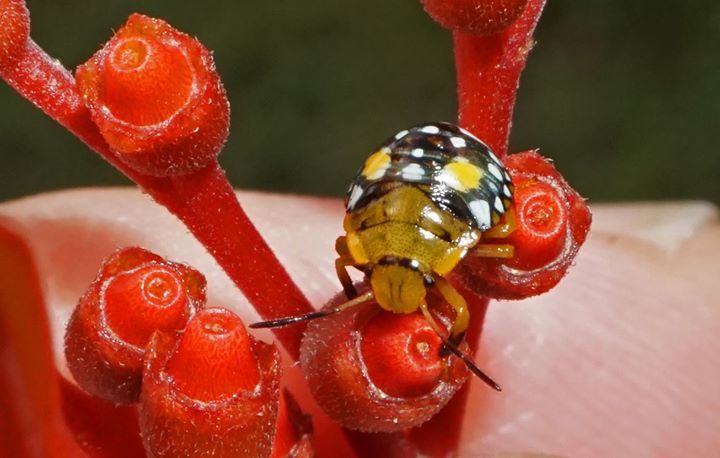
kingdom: Animalia
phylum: Arthropoda
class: Insecta
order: Hemiptera
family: Pentatomidae
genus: Acrosternum
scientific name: Acrosternum marginatum
